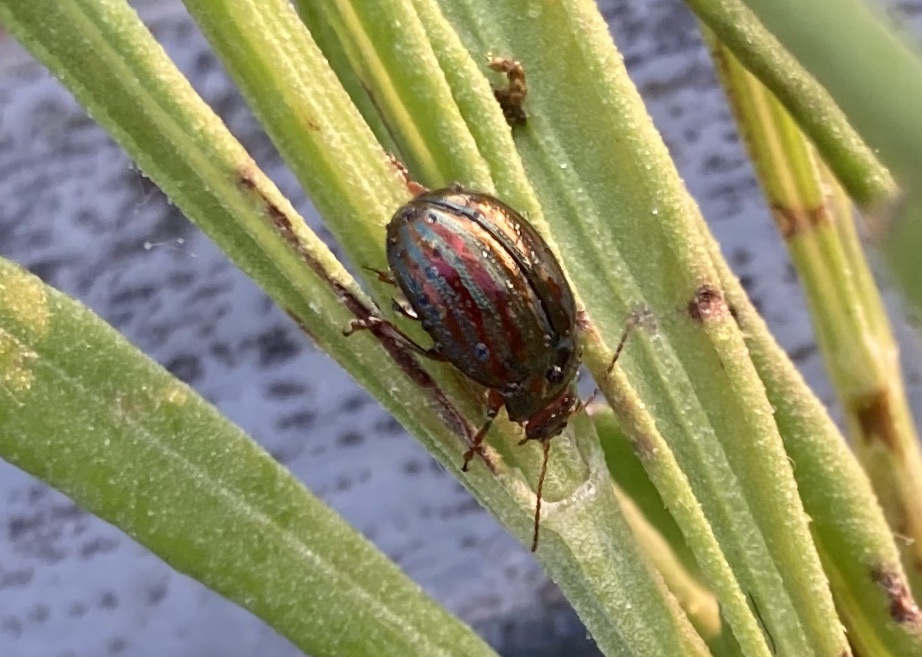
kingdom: Animalia
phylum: Arthropoda
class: Insecta
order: Coleoptera
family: Chrysomelidae
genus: Chrysolina
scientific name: Chrysolina americana
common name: Rosemary beetle
